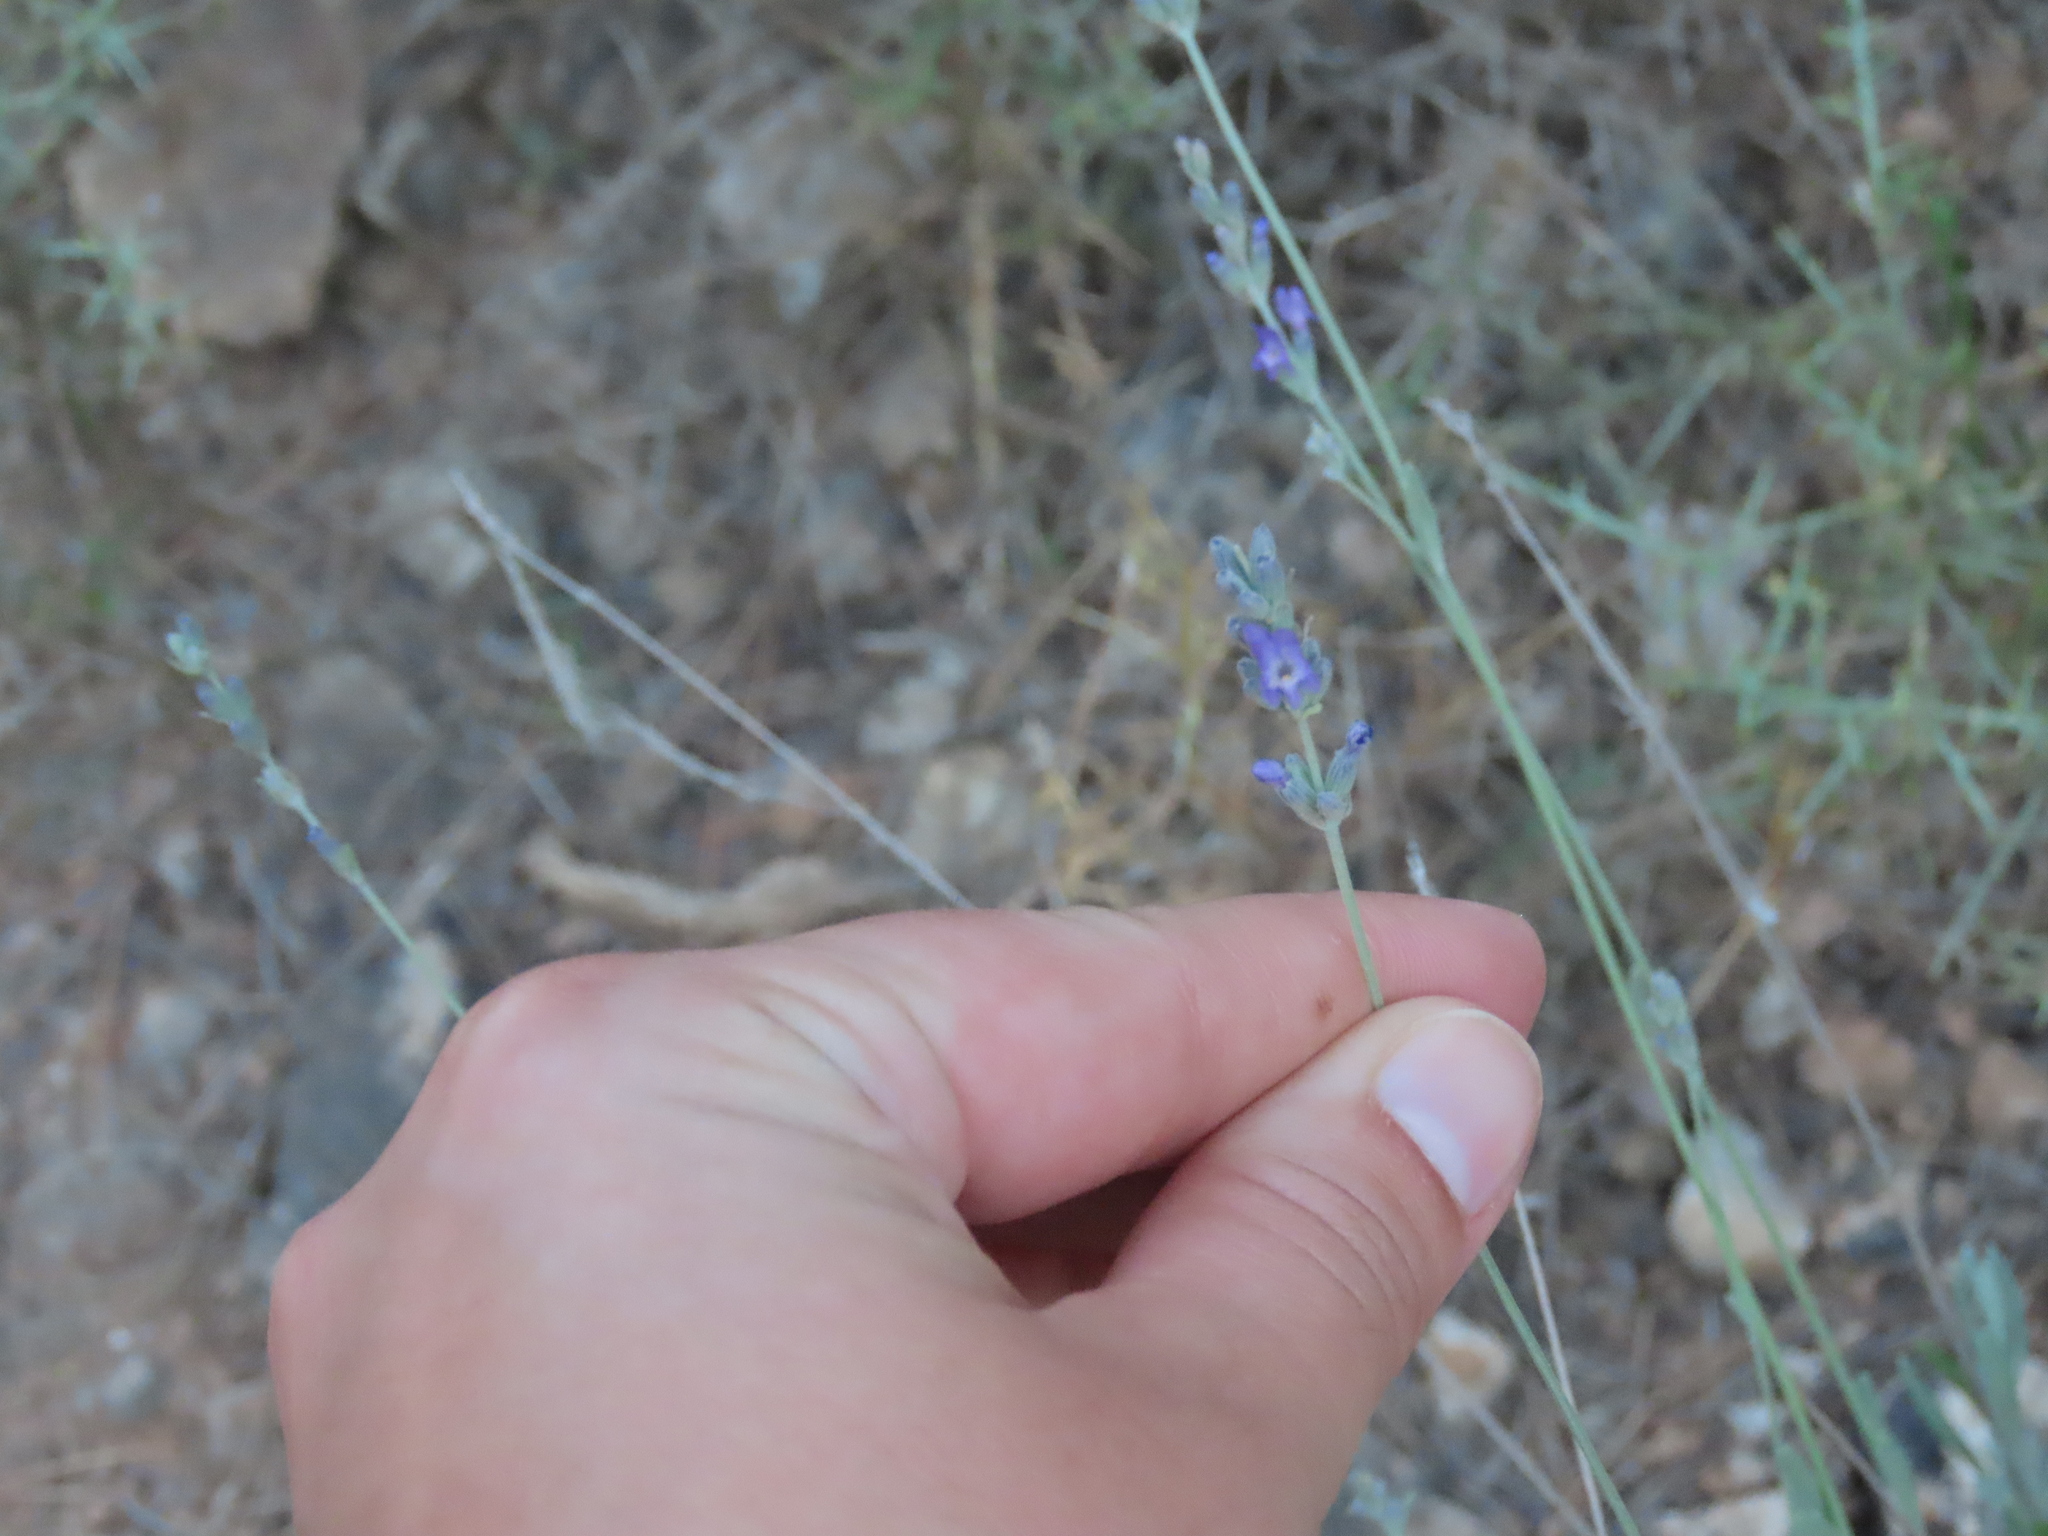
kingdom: Plantae
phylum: Tracheophyta
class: Magnoliopsida
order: Lamiales
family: Lamiaceae
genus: Lavandula
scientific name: Lavandula latifolia
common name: Spike lavendar
